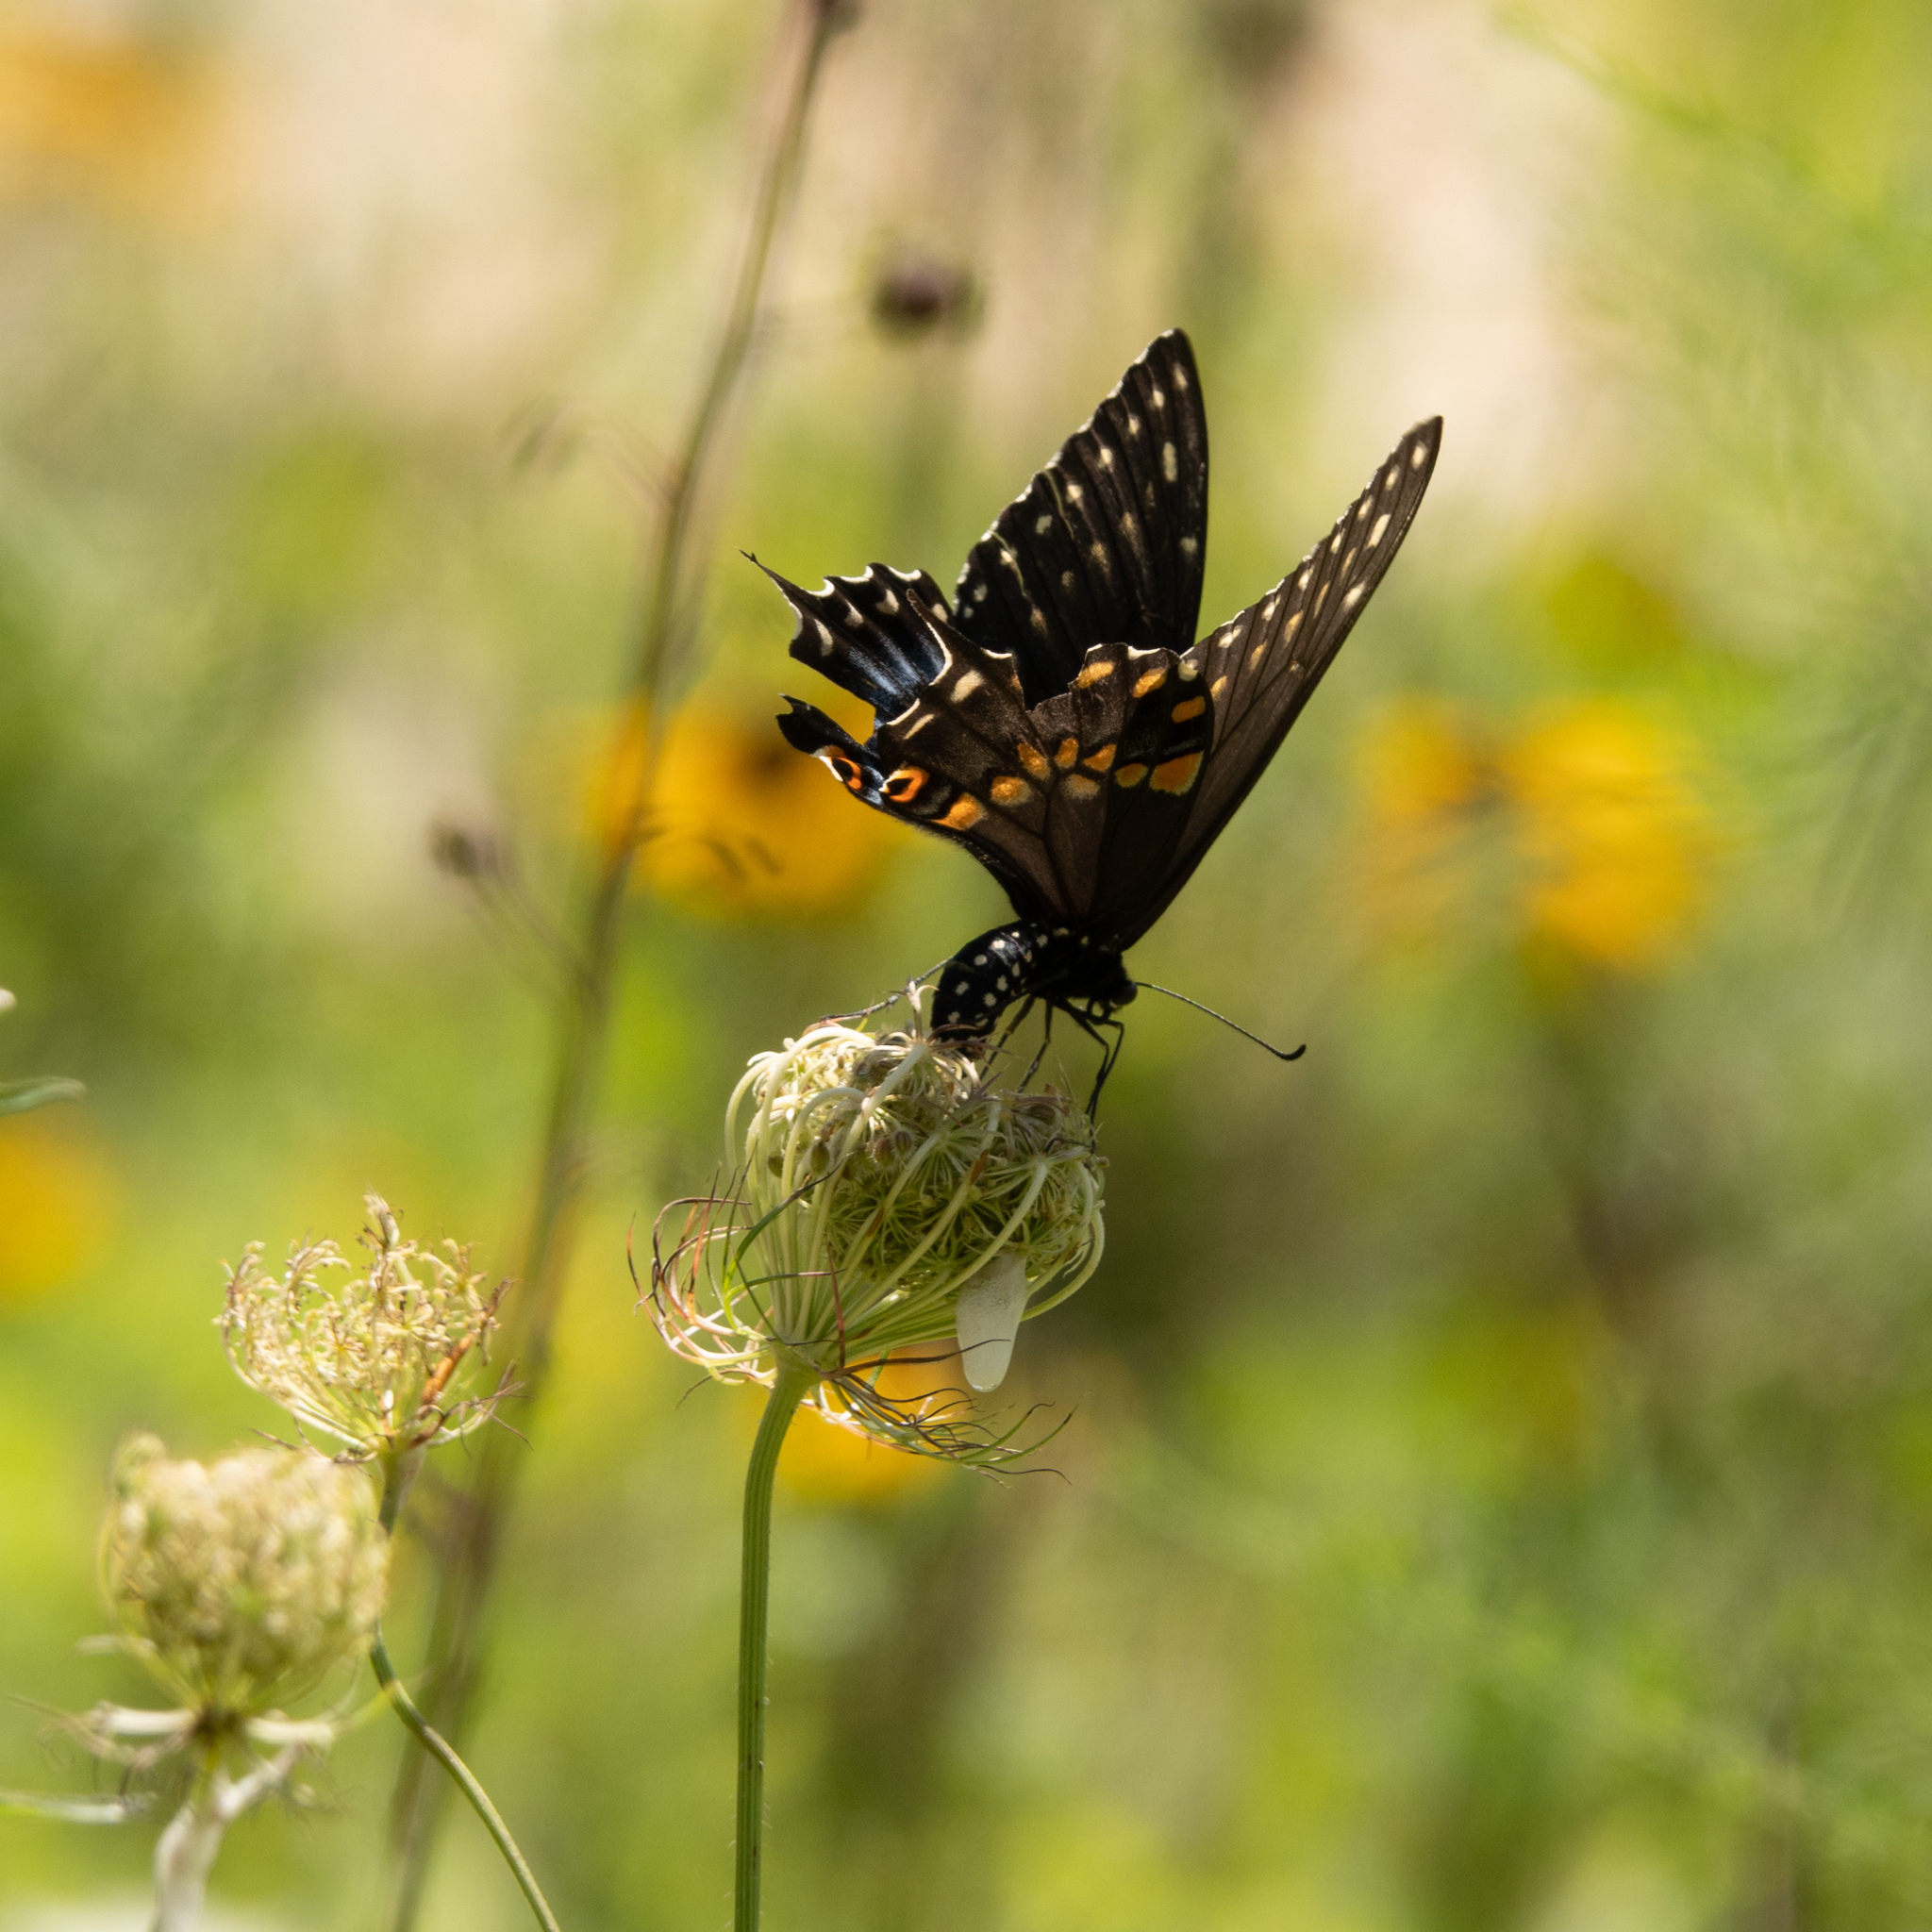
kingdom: Animalia
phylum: Arthropoda
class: Insecta
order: Lepidoptera
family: Papilionidae
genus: Papilio
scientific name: Papilio polyxenes
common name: Black swallowtail
